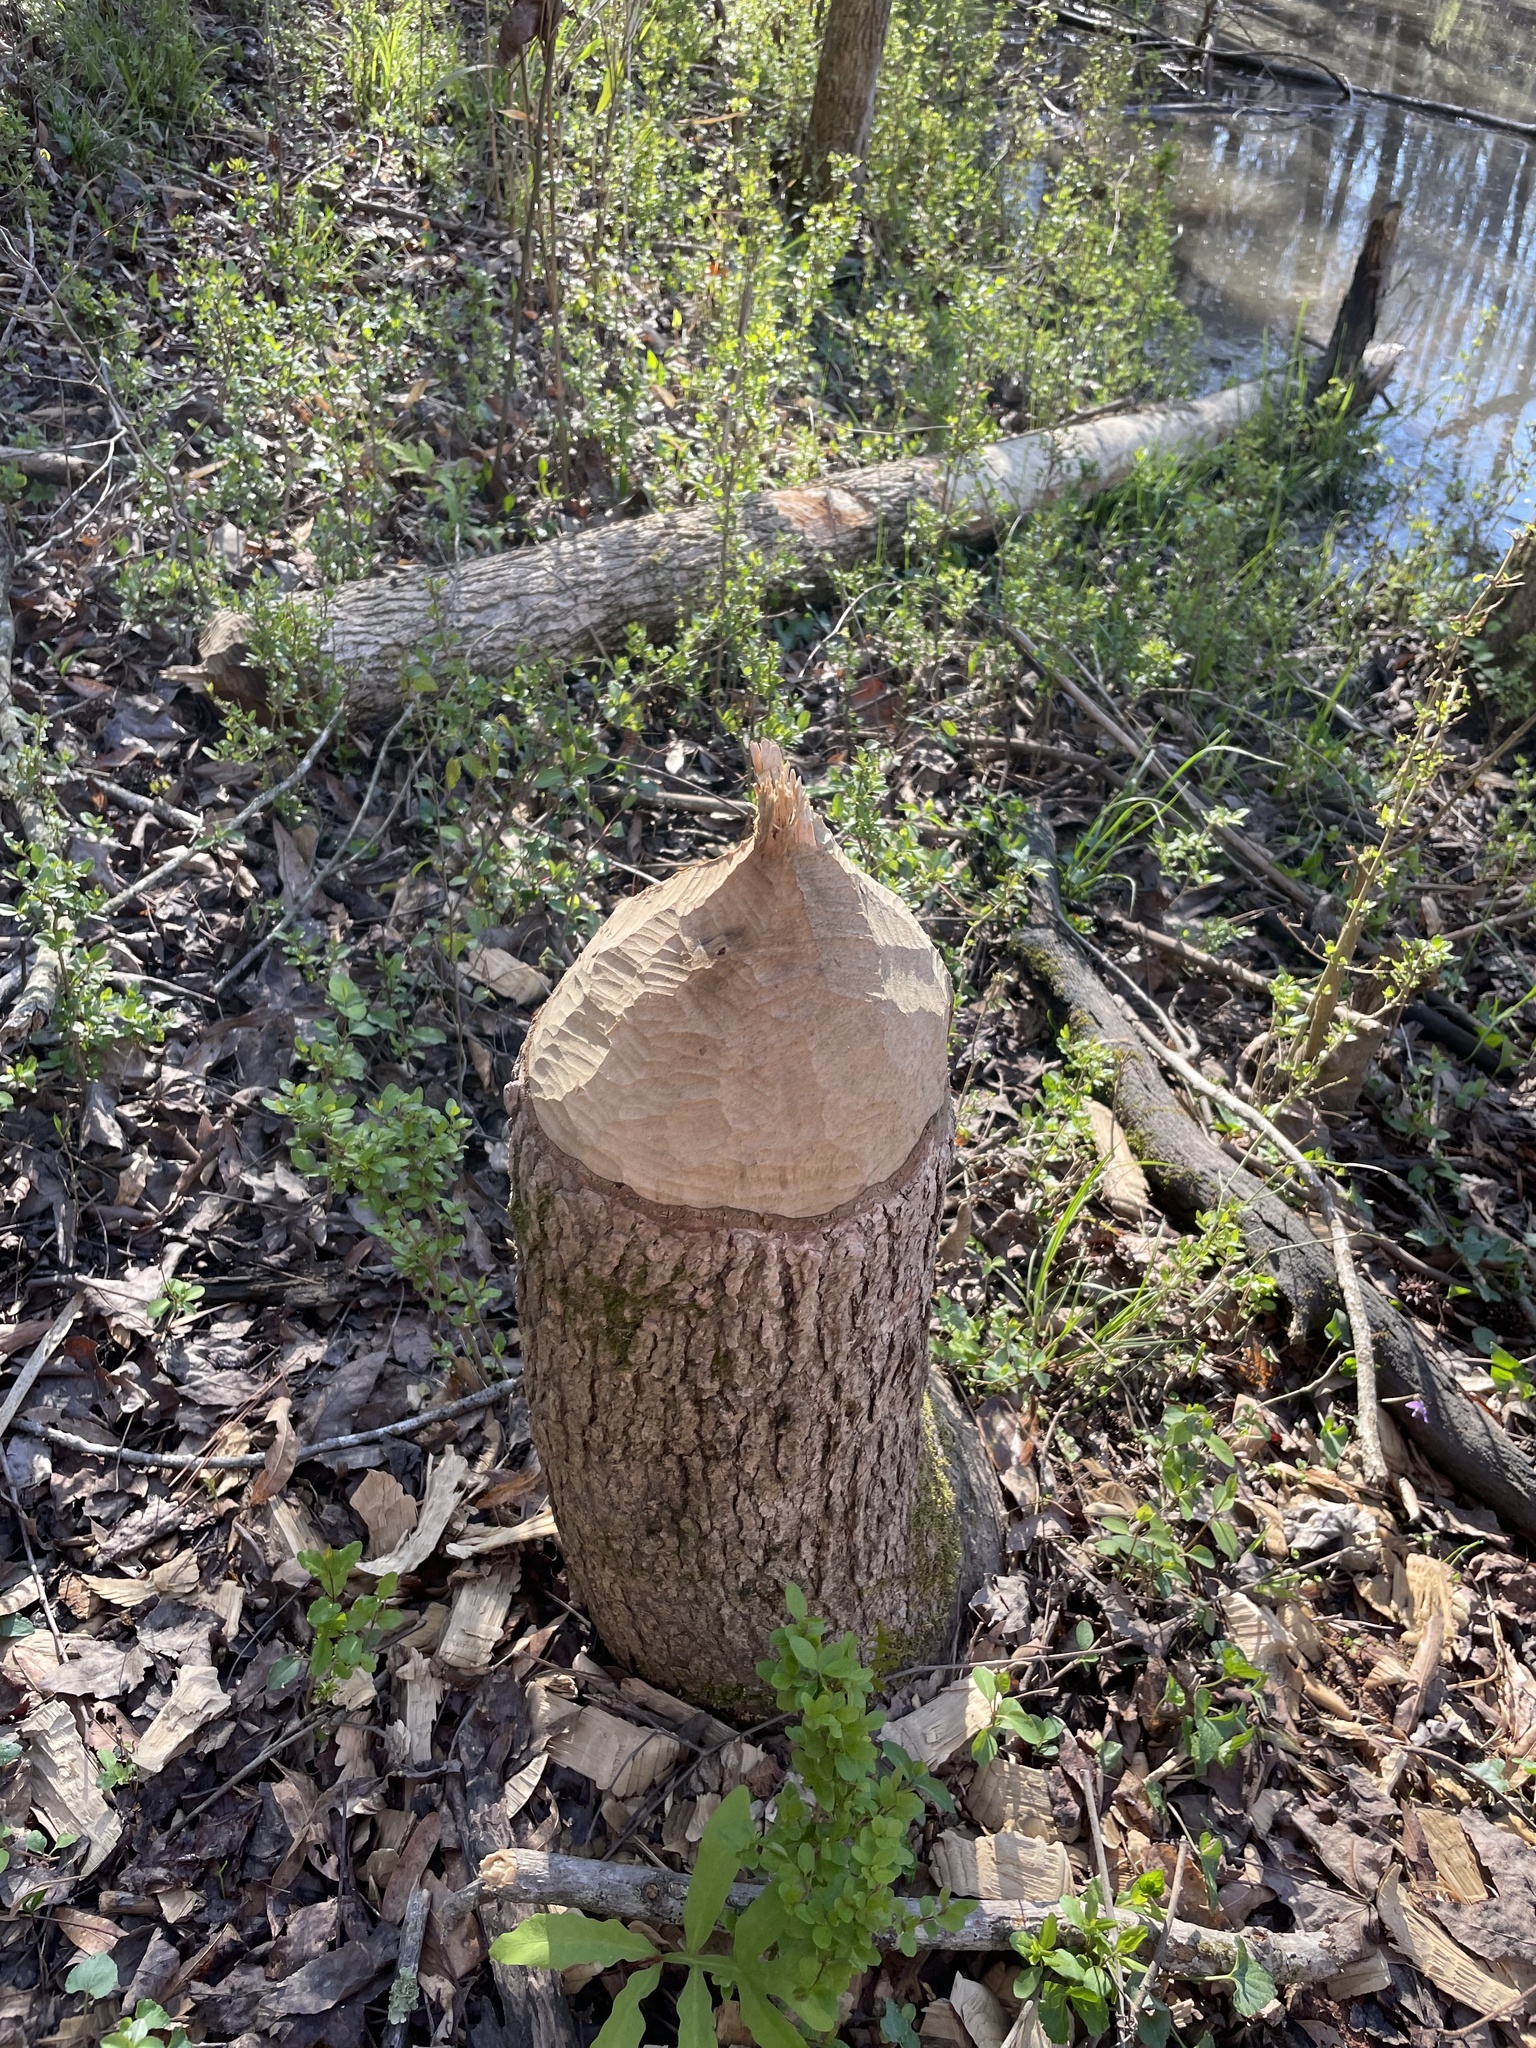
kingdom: Animalia
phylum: Chordata
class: Mammalia
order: Rodentia
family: Castoridae
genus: Castor
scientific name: Castor canadensis
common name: American beaver
